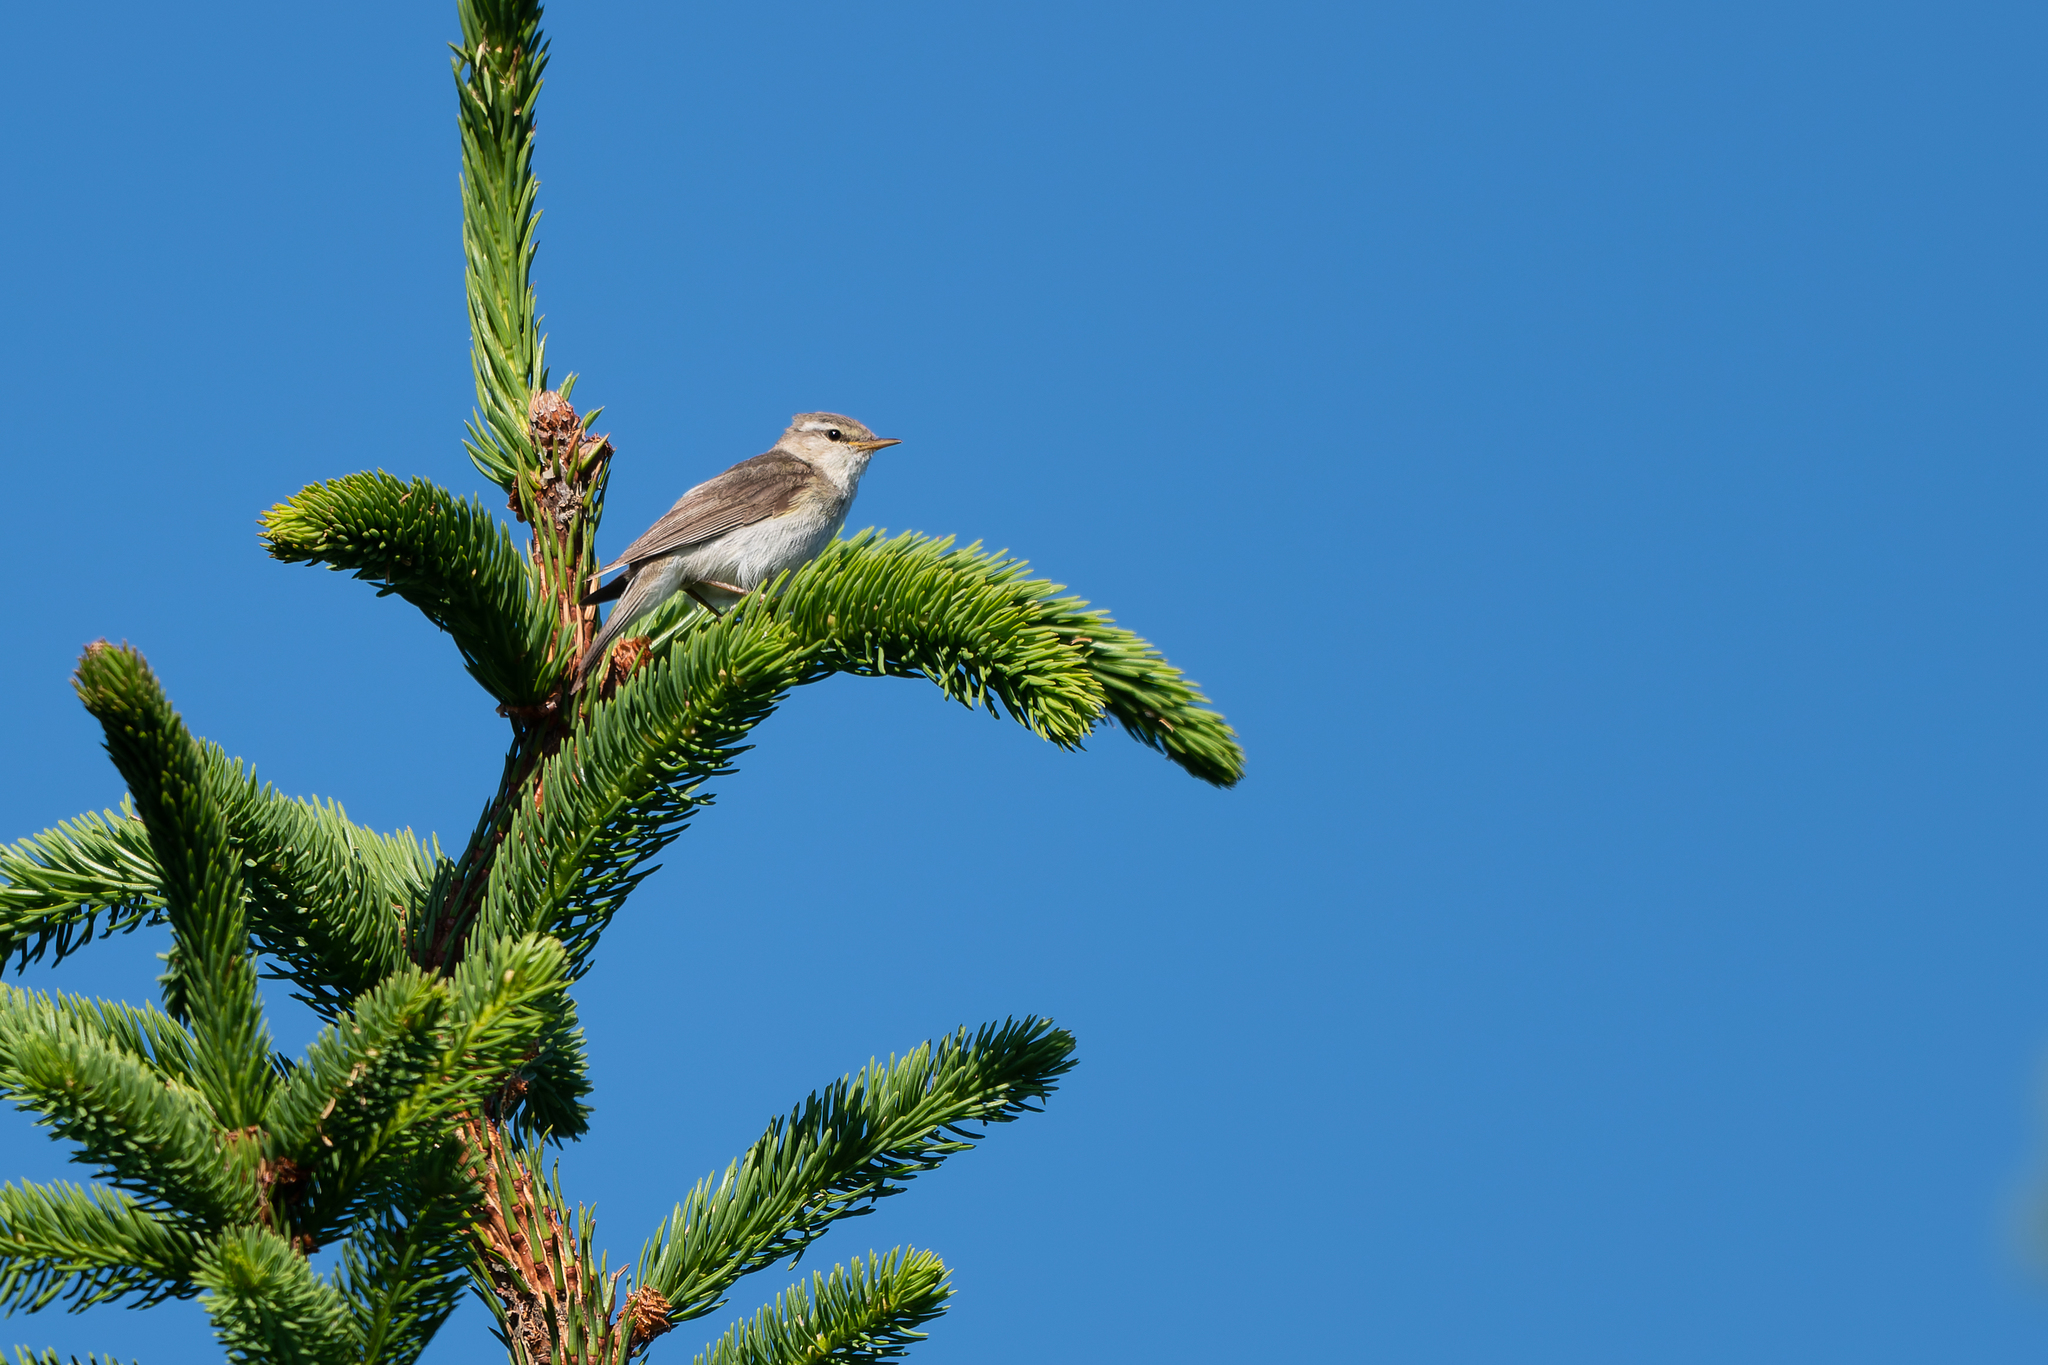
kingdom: Animalia
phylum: Chordata
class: Aves
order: Passeriformes
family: Phylloscopidae
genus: Phylloscopus
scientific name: Phylloscopus trochilus
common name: Willow warbler
